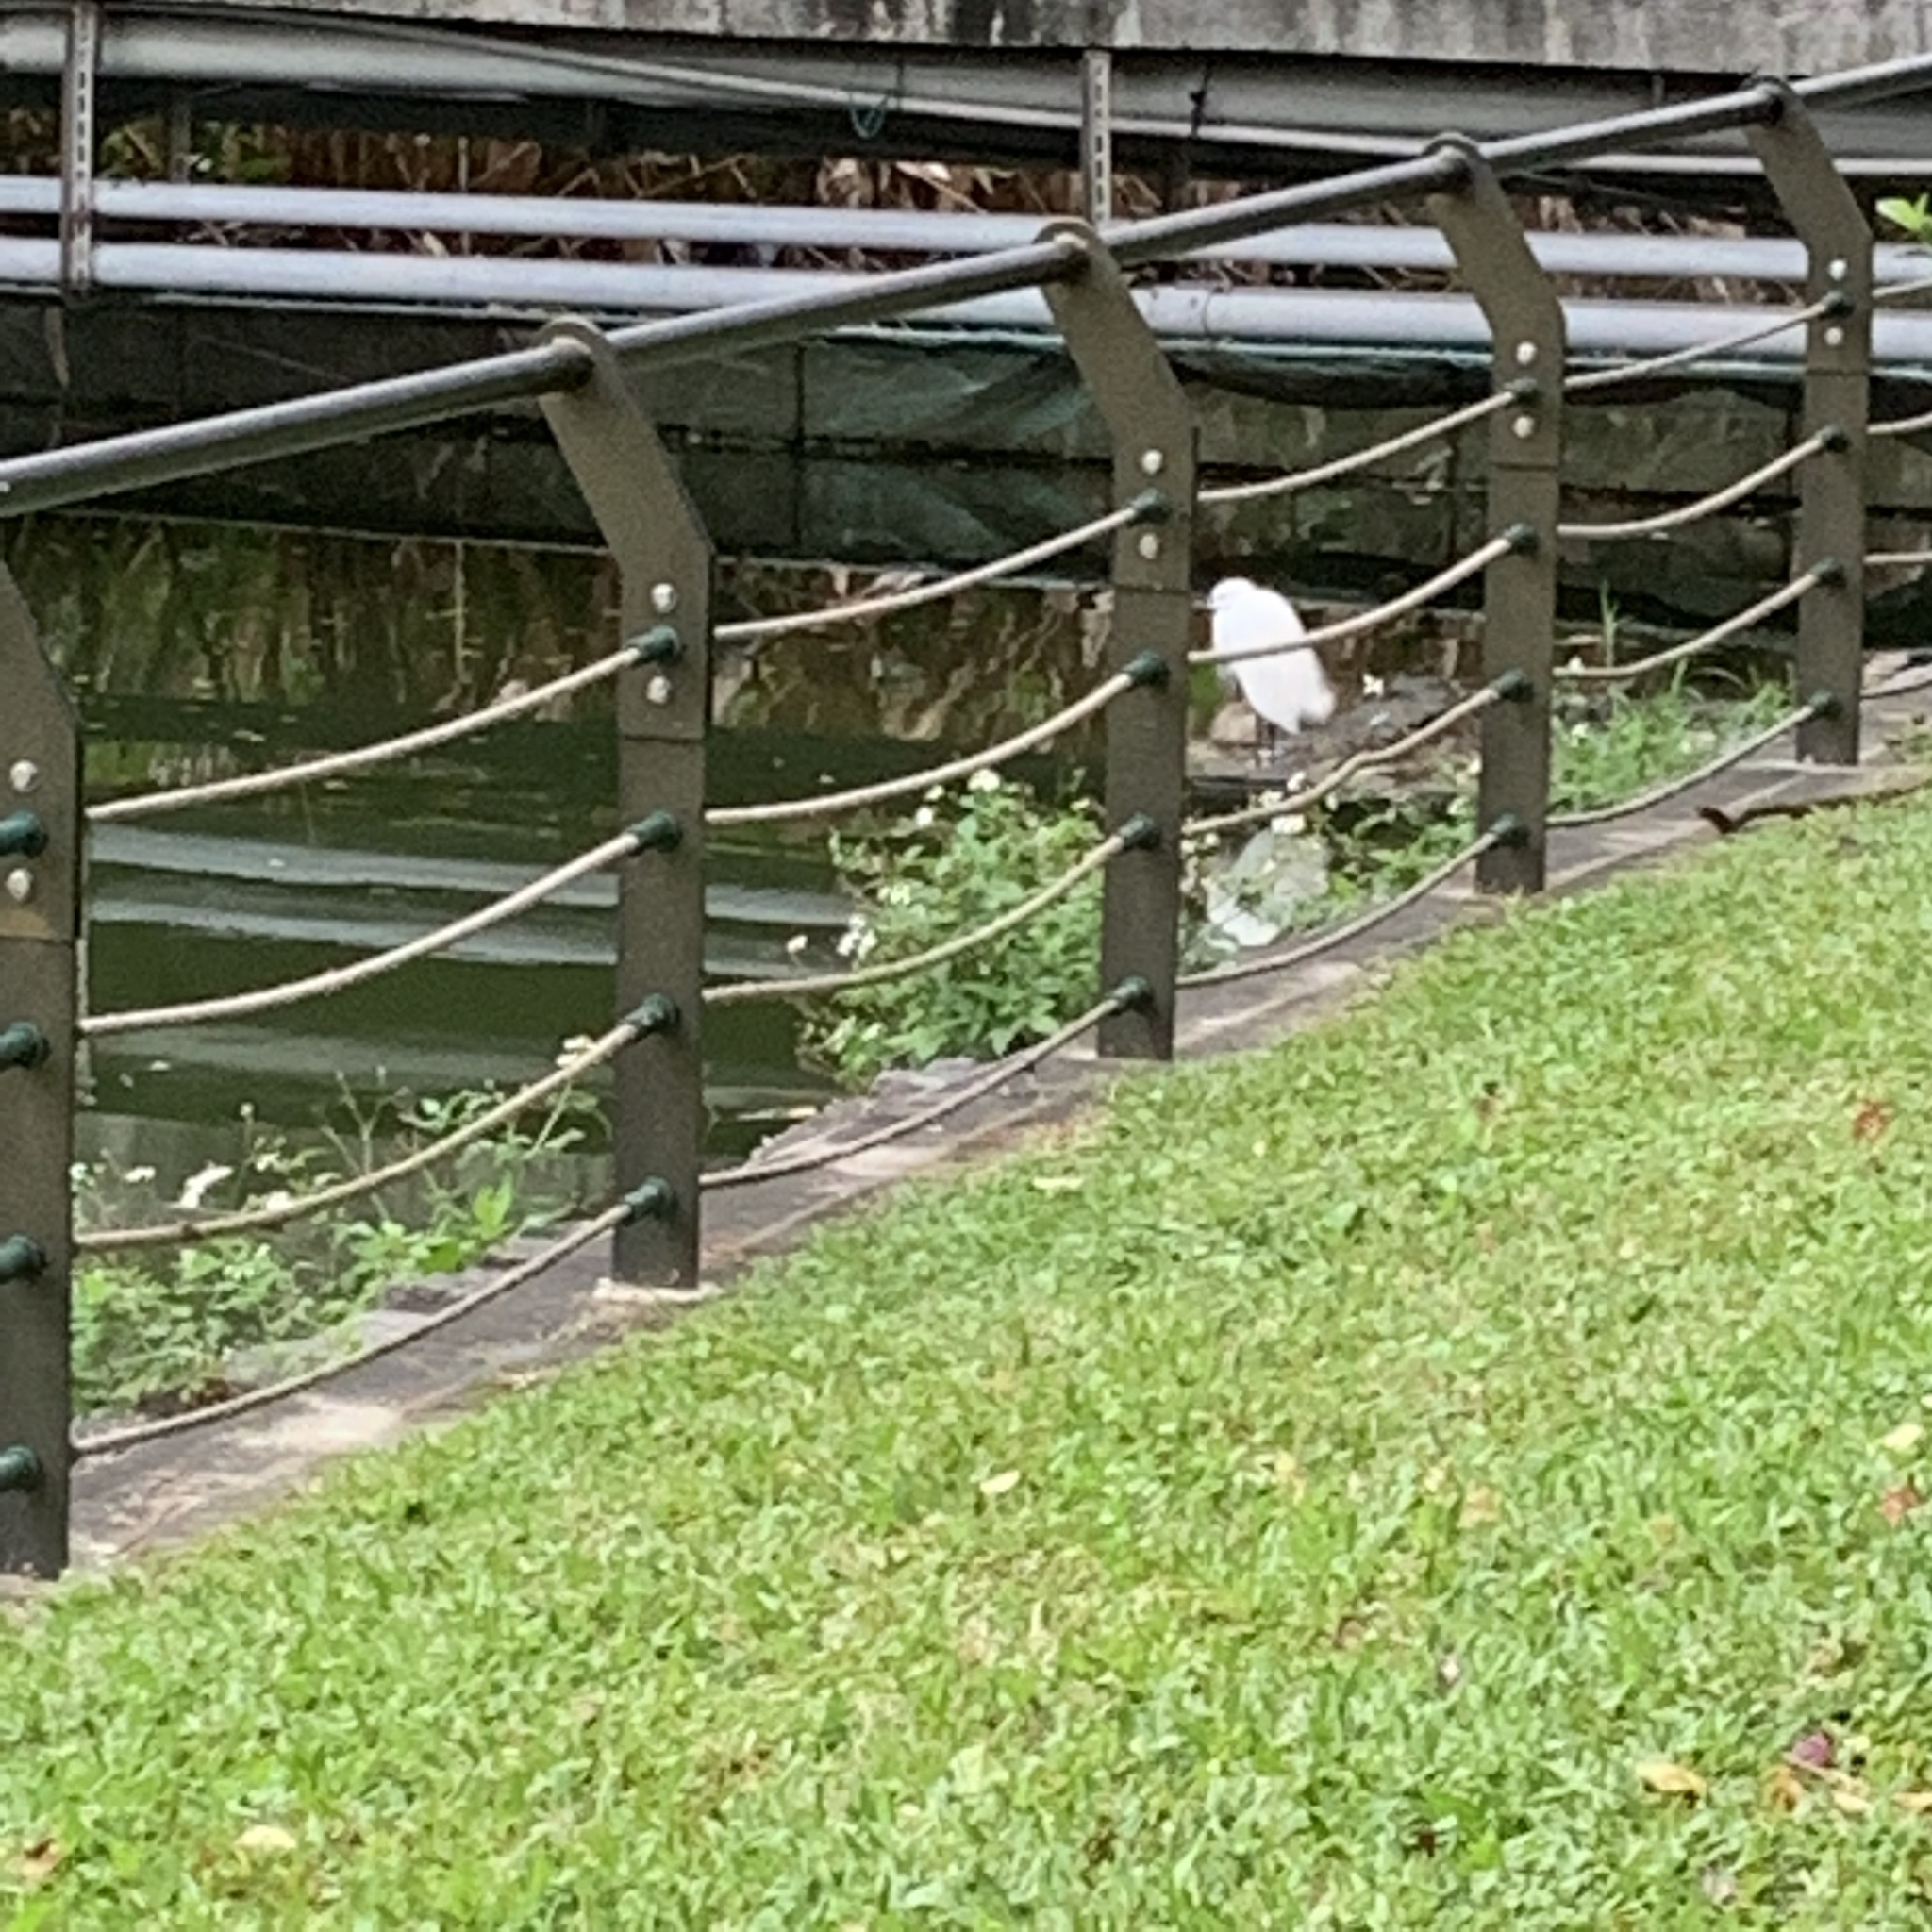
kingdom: Animalia
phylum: Chordata
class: Aves
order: Pelecaniformes
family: Ardeidae
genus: Egretta
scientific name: Egretta garzetta
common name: Little egret
